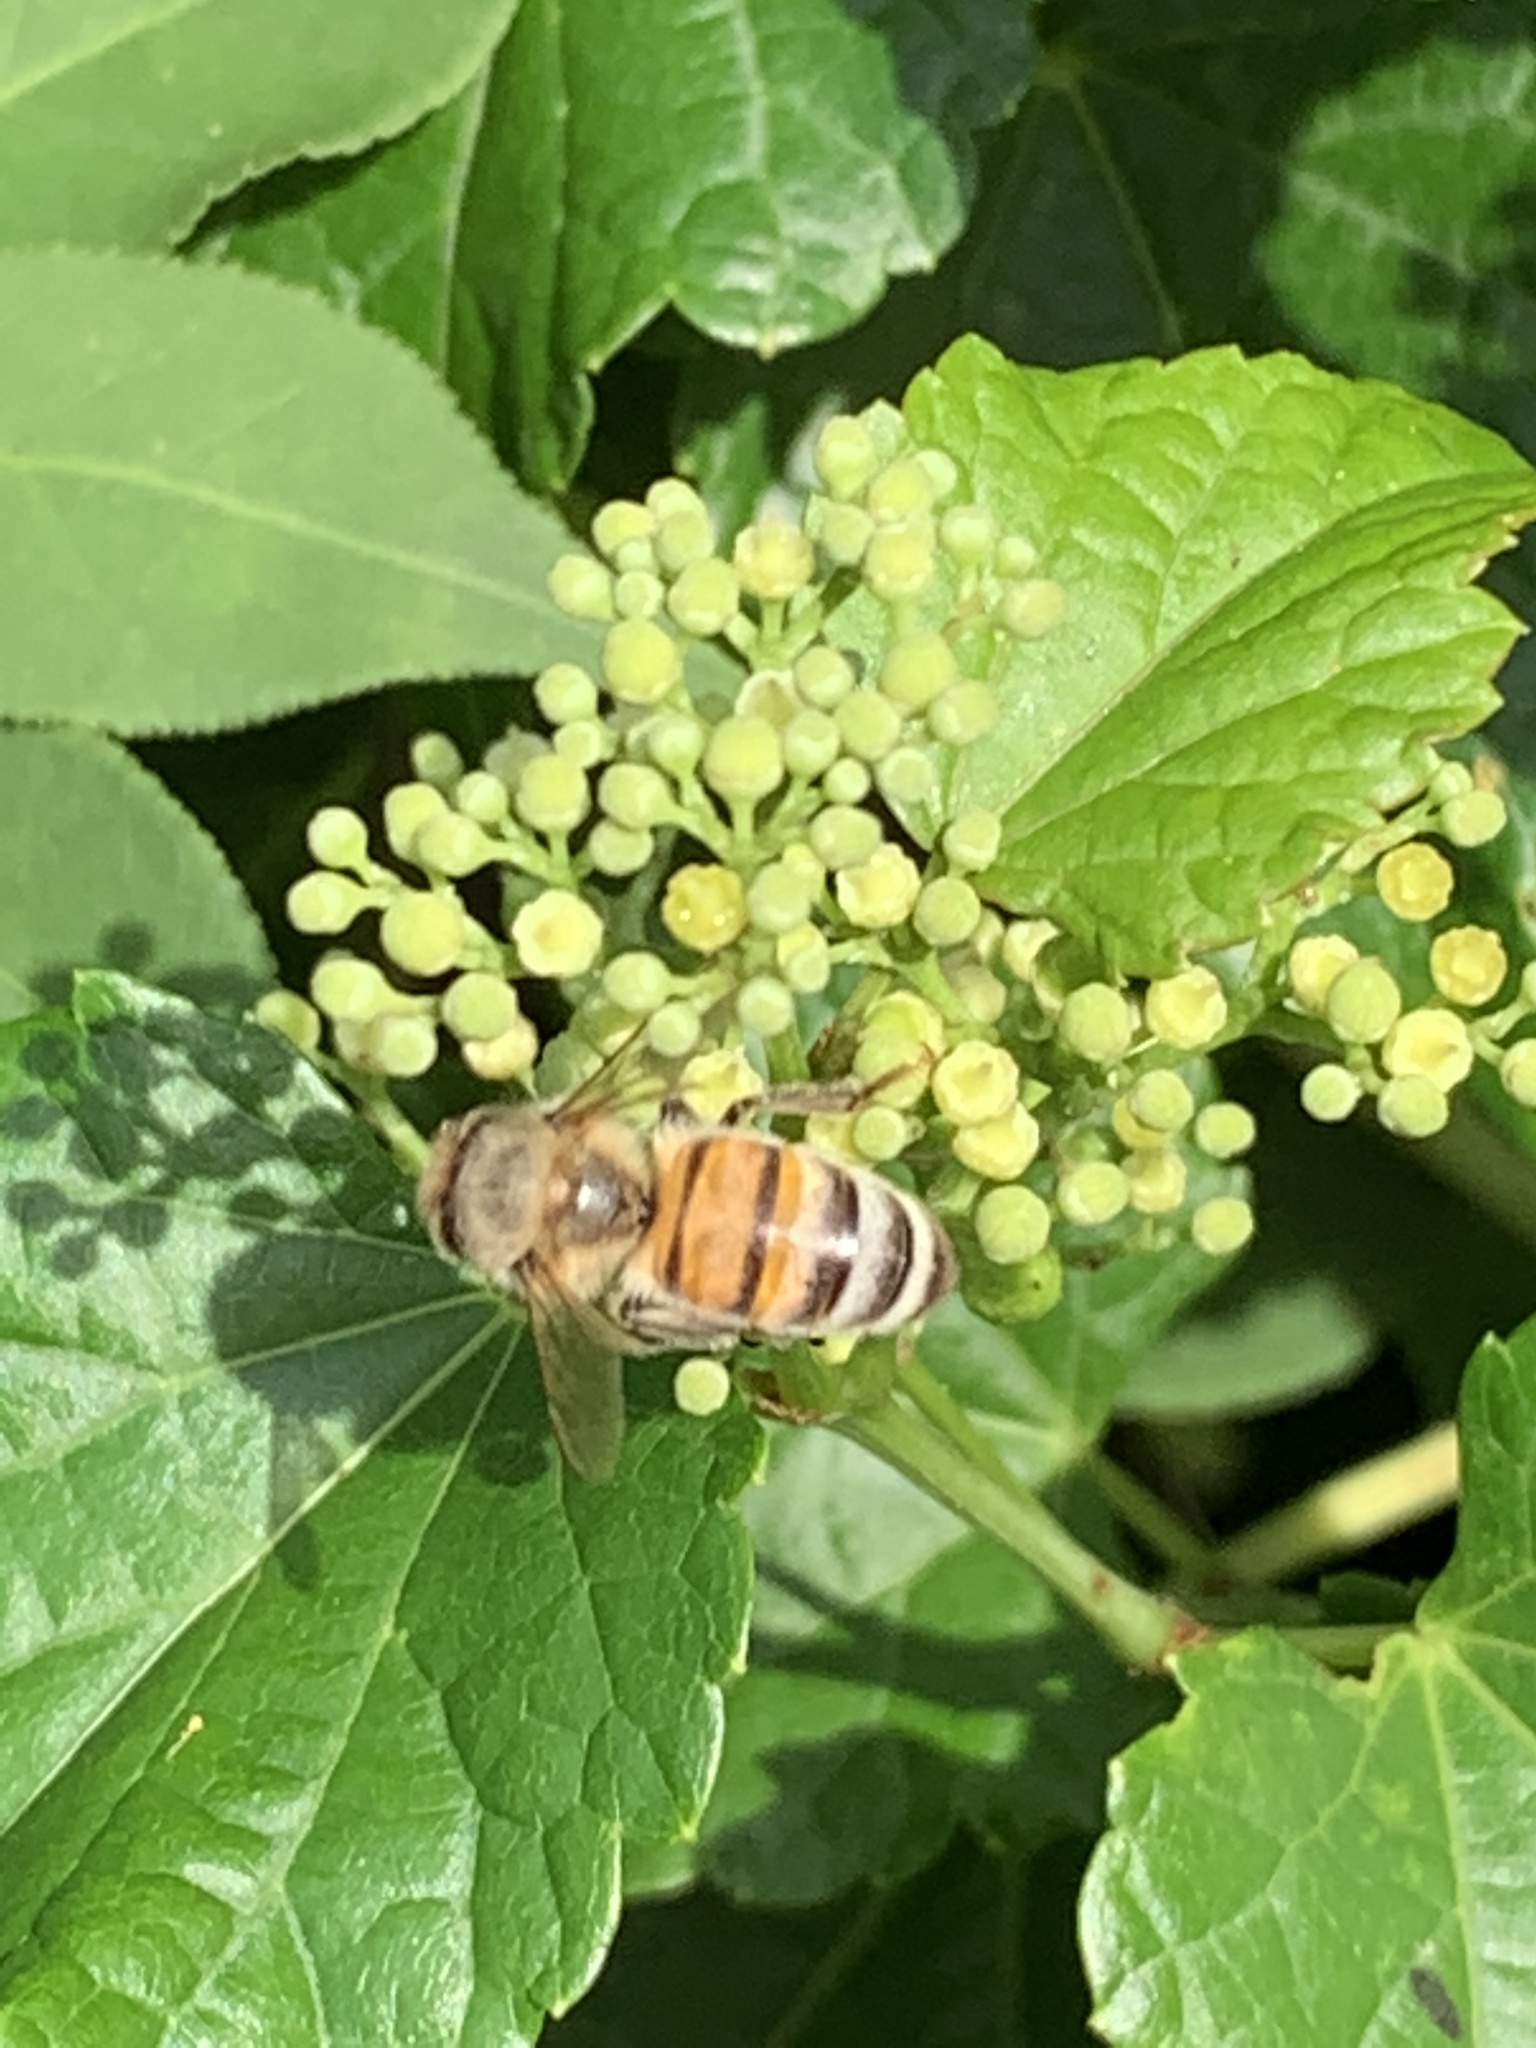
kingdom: Animalia
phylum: Arthropoda
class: Insecta
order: Hymenoptera
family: Apidae
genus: Apis
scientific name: Apis mellifera
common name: Honey bee
